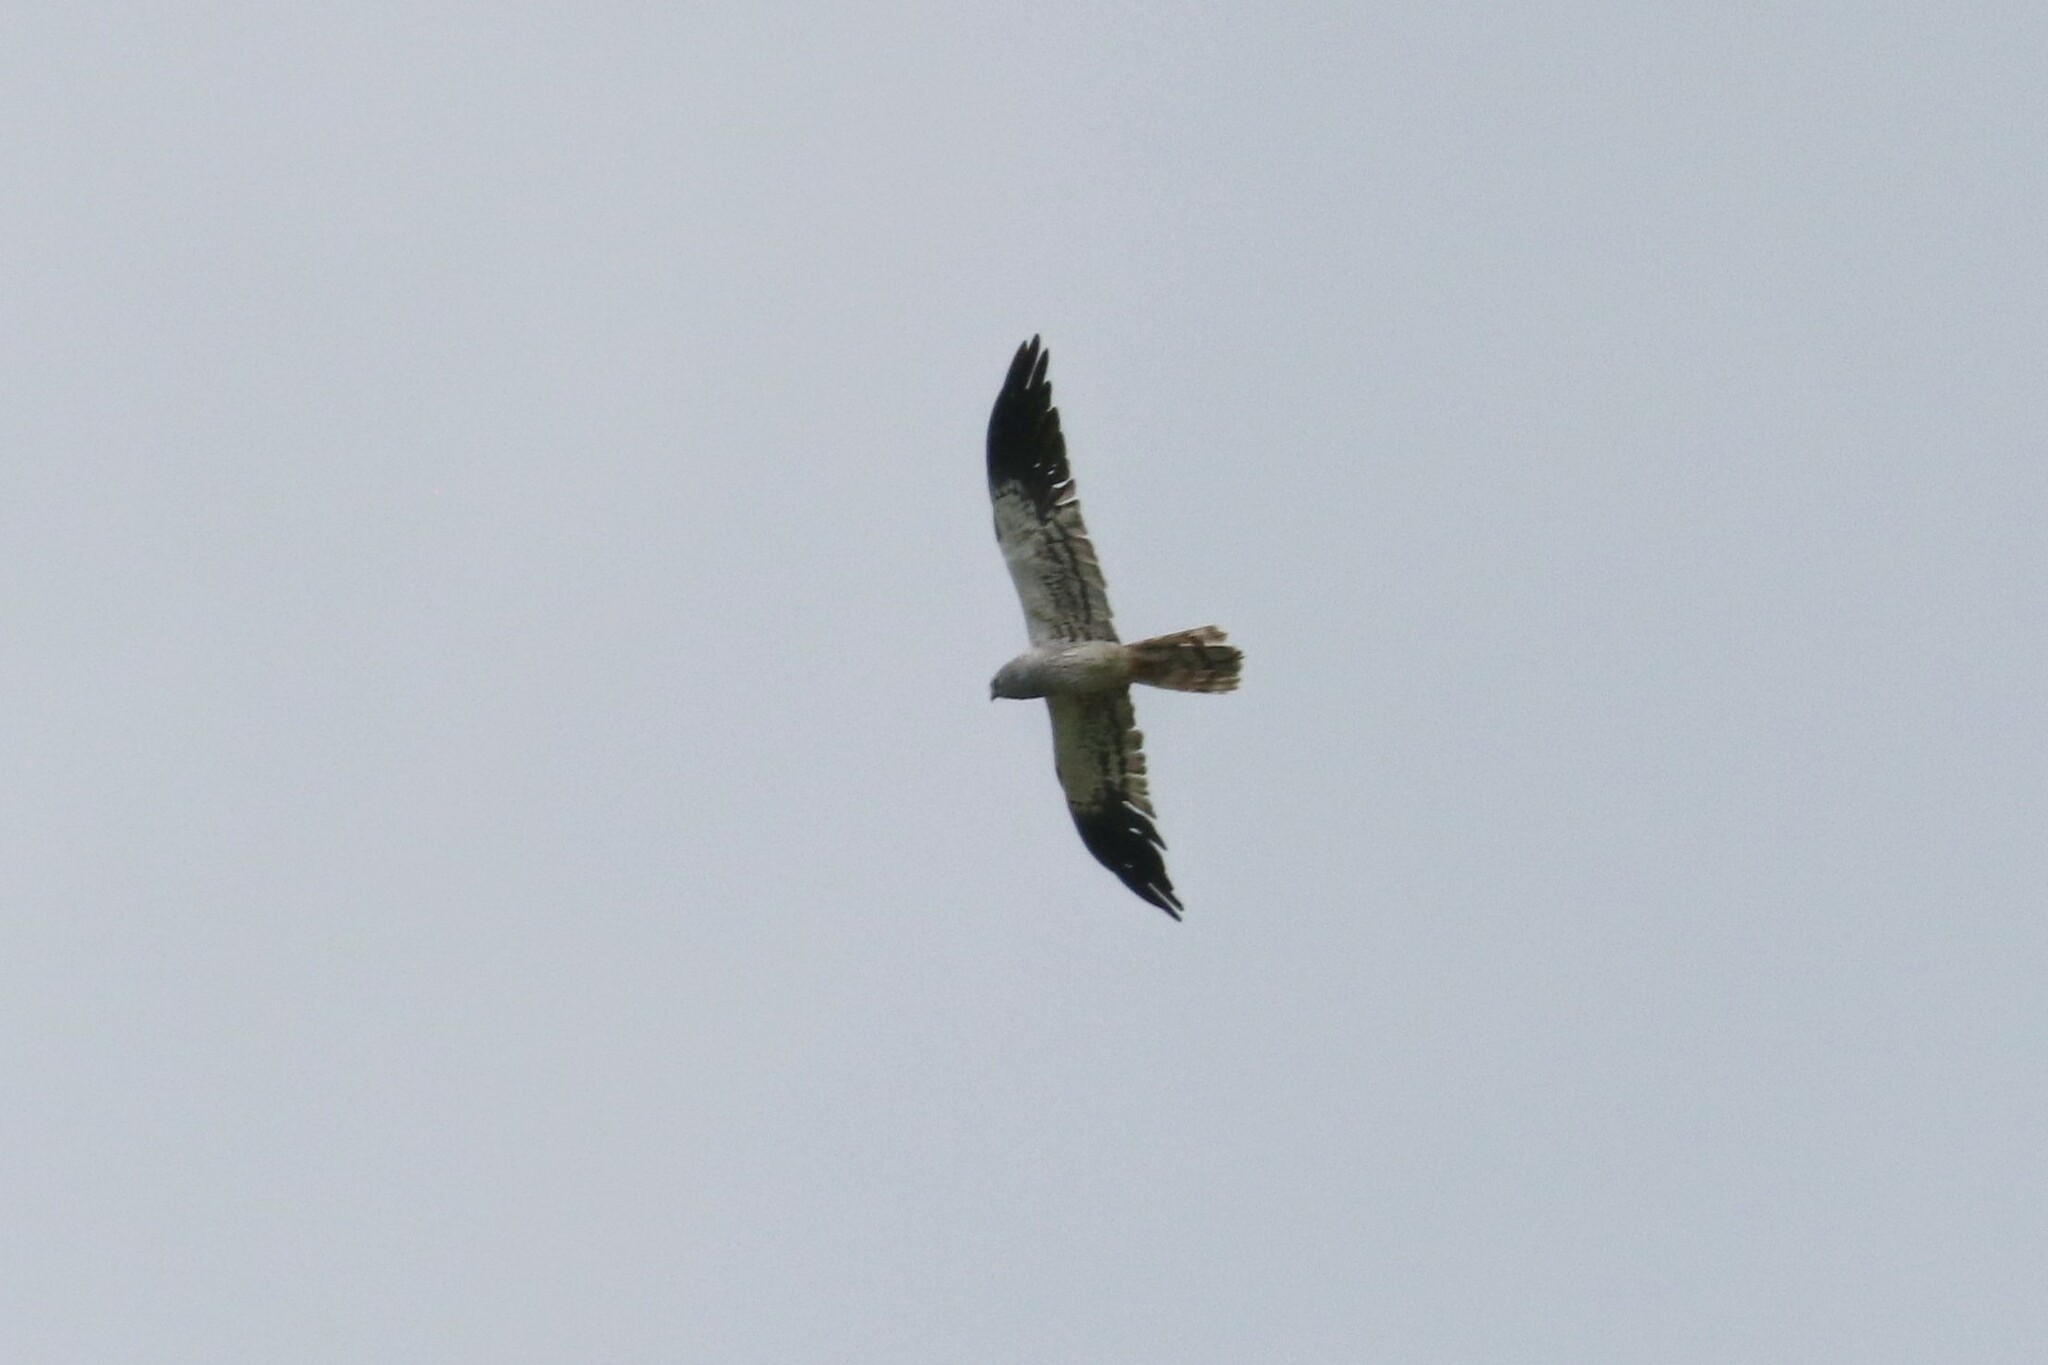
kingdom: Animalia
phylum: Chordata
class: Aves
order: Accipitriformes
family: Accipitridae
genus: Circus
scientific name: Circus pygargus
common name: Montagu's harrier
